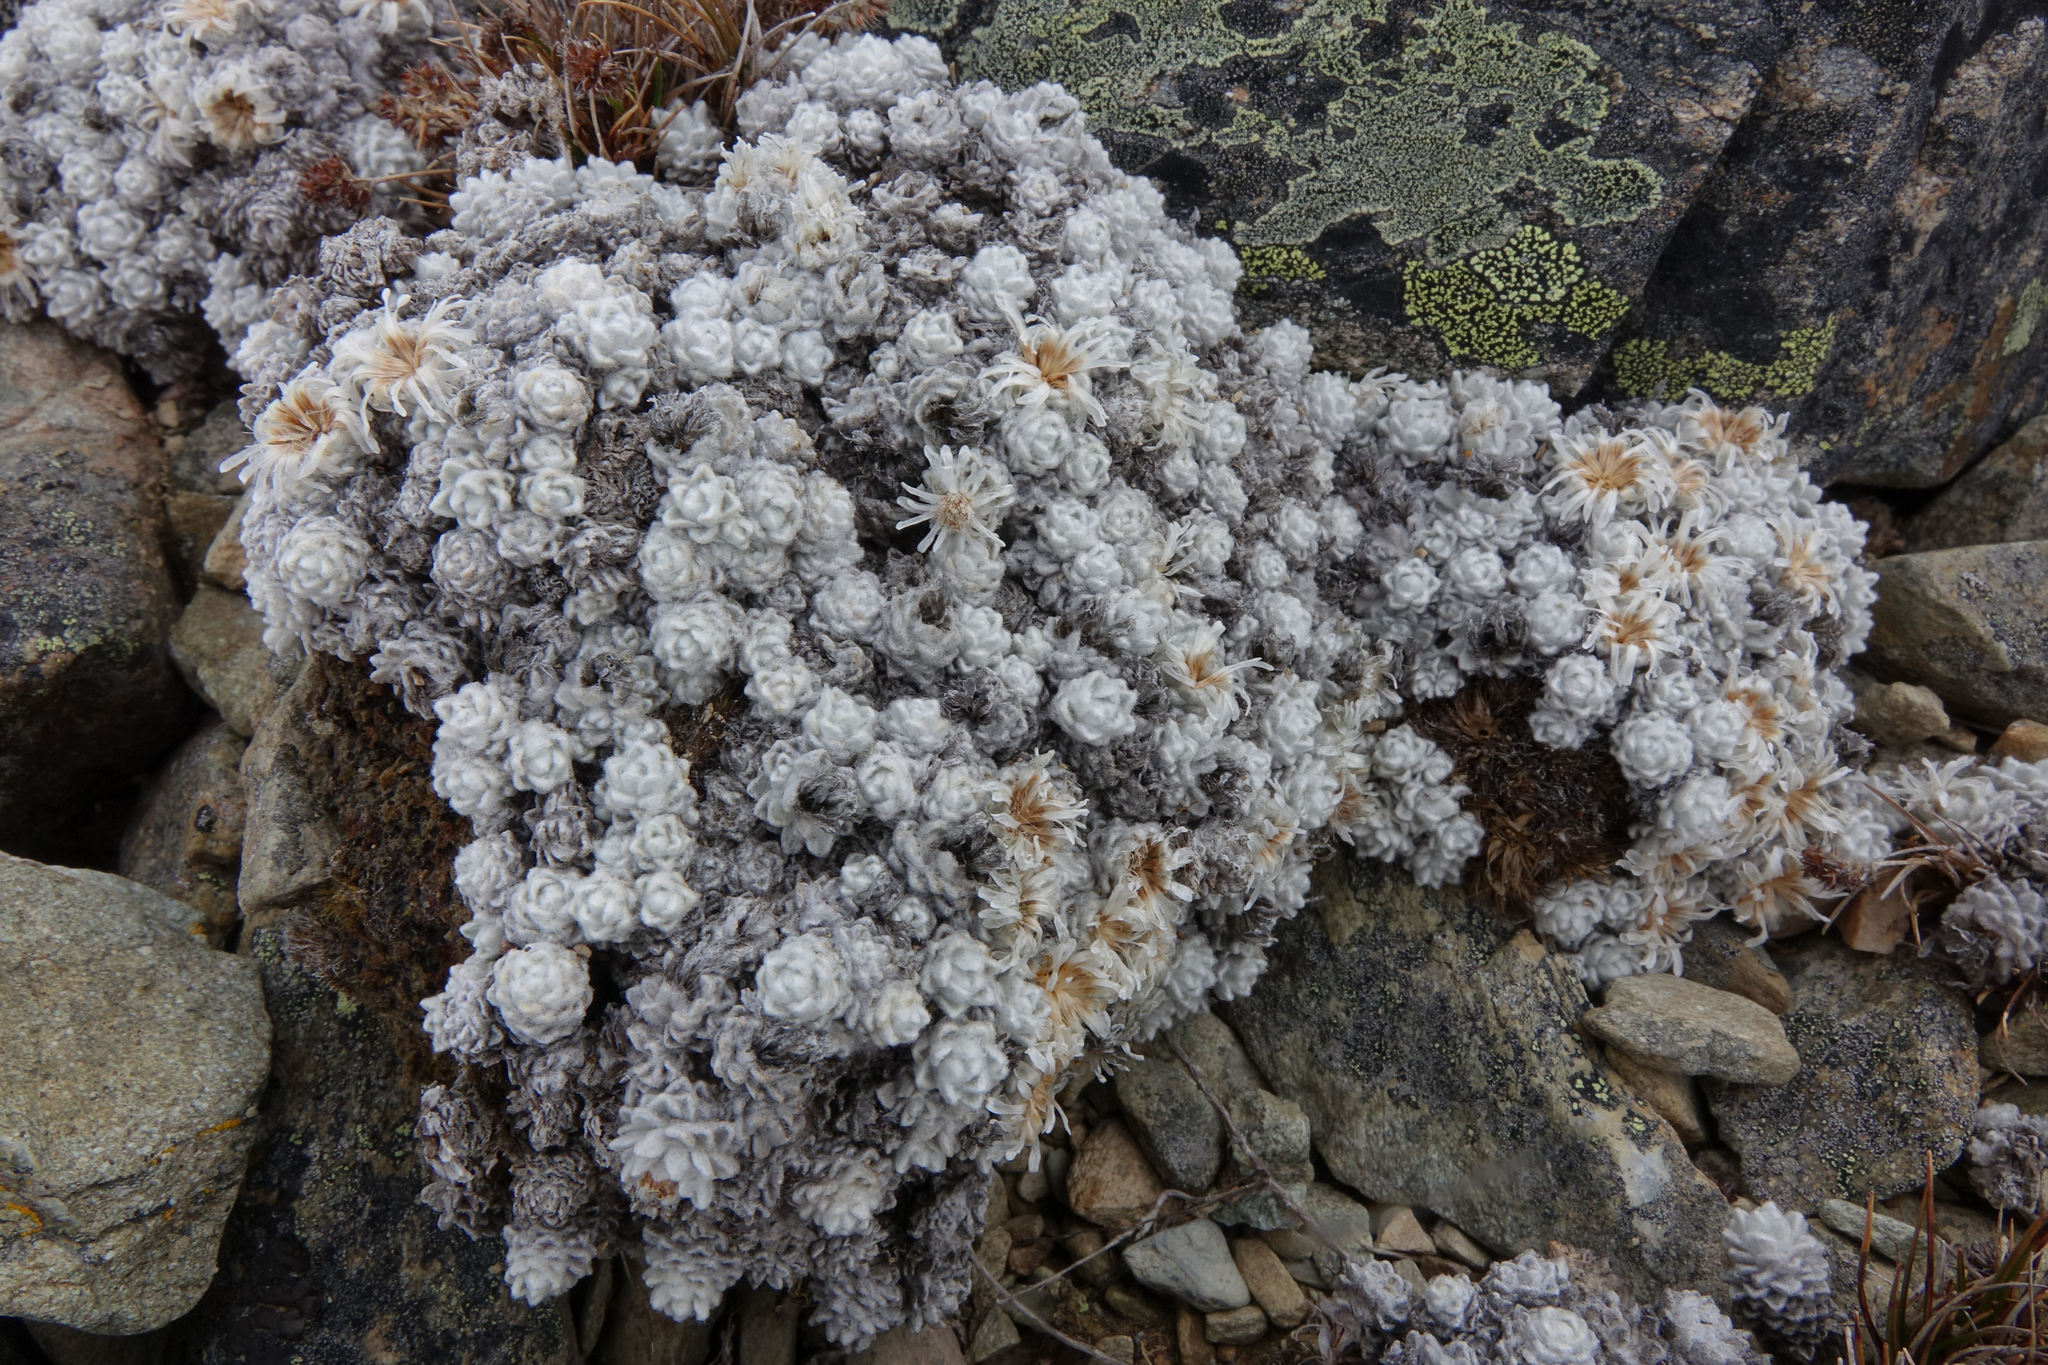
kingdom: Plantae
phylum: Tracheophyta
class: Magnoliopsida
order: Asterales
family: Asteraceae
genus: Raoulia
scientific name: Raoulia youngii
